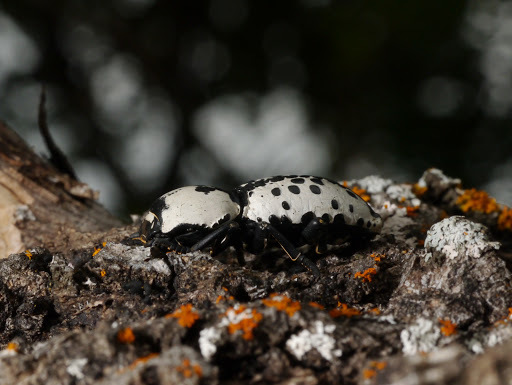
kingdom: Animalia
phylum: Arthropoda
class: Insecta
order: Coleoptera
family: Zopheridae
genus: Zopherus
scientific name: Zopherus nodulosus
